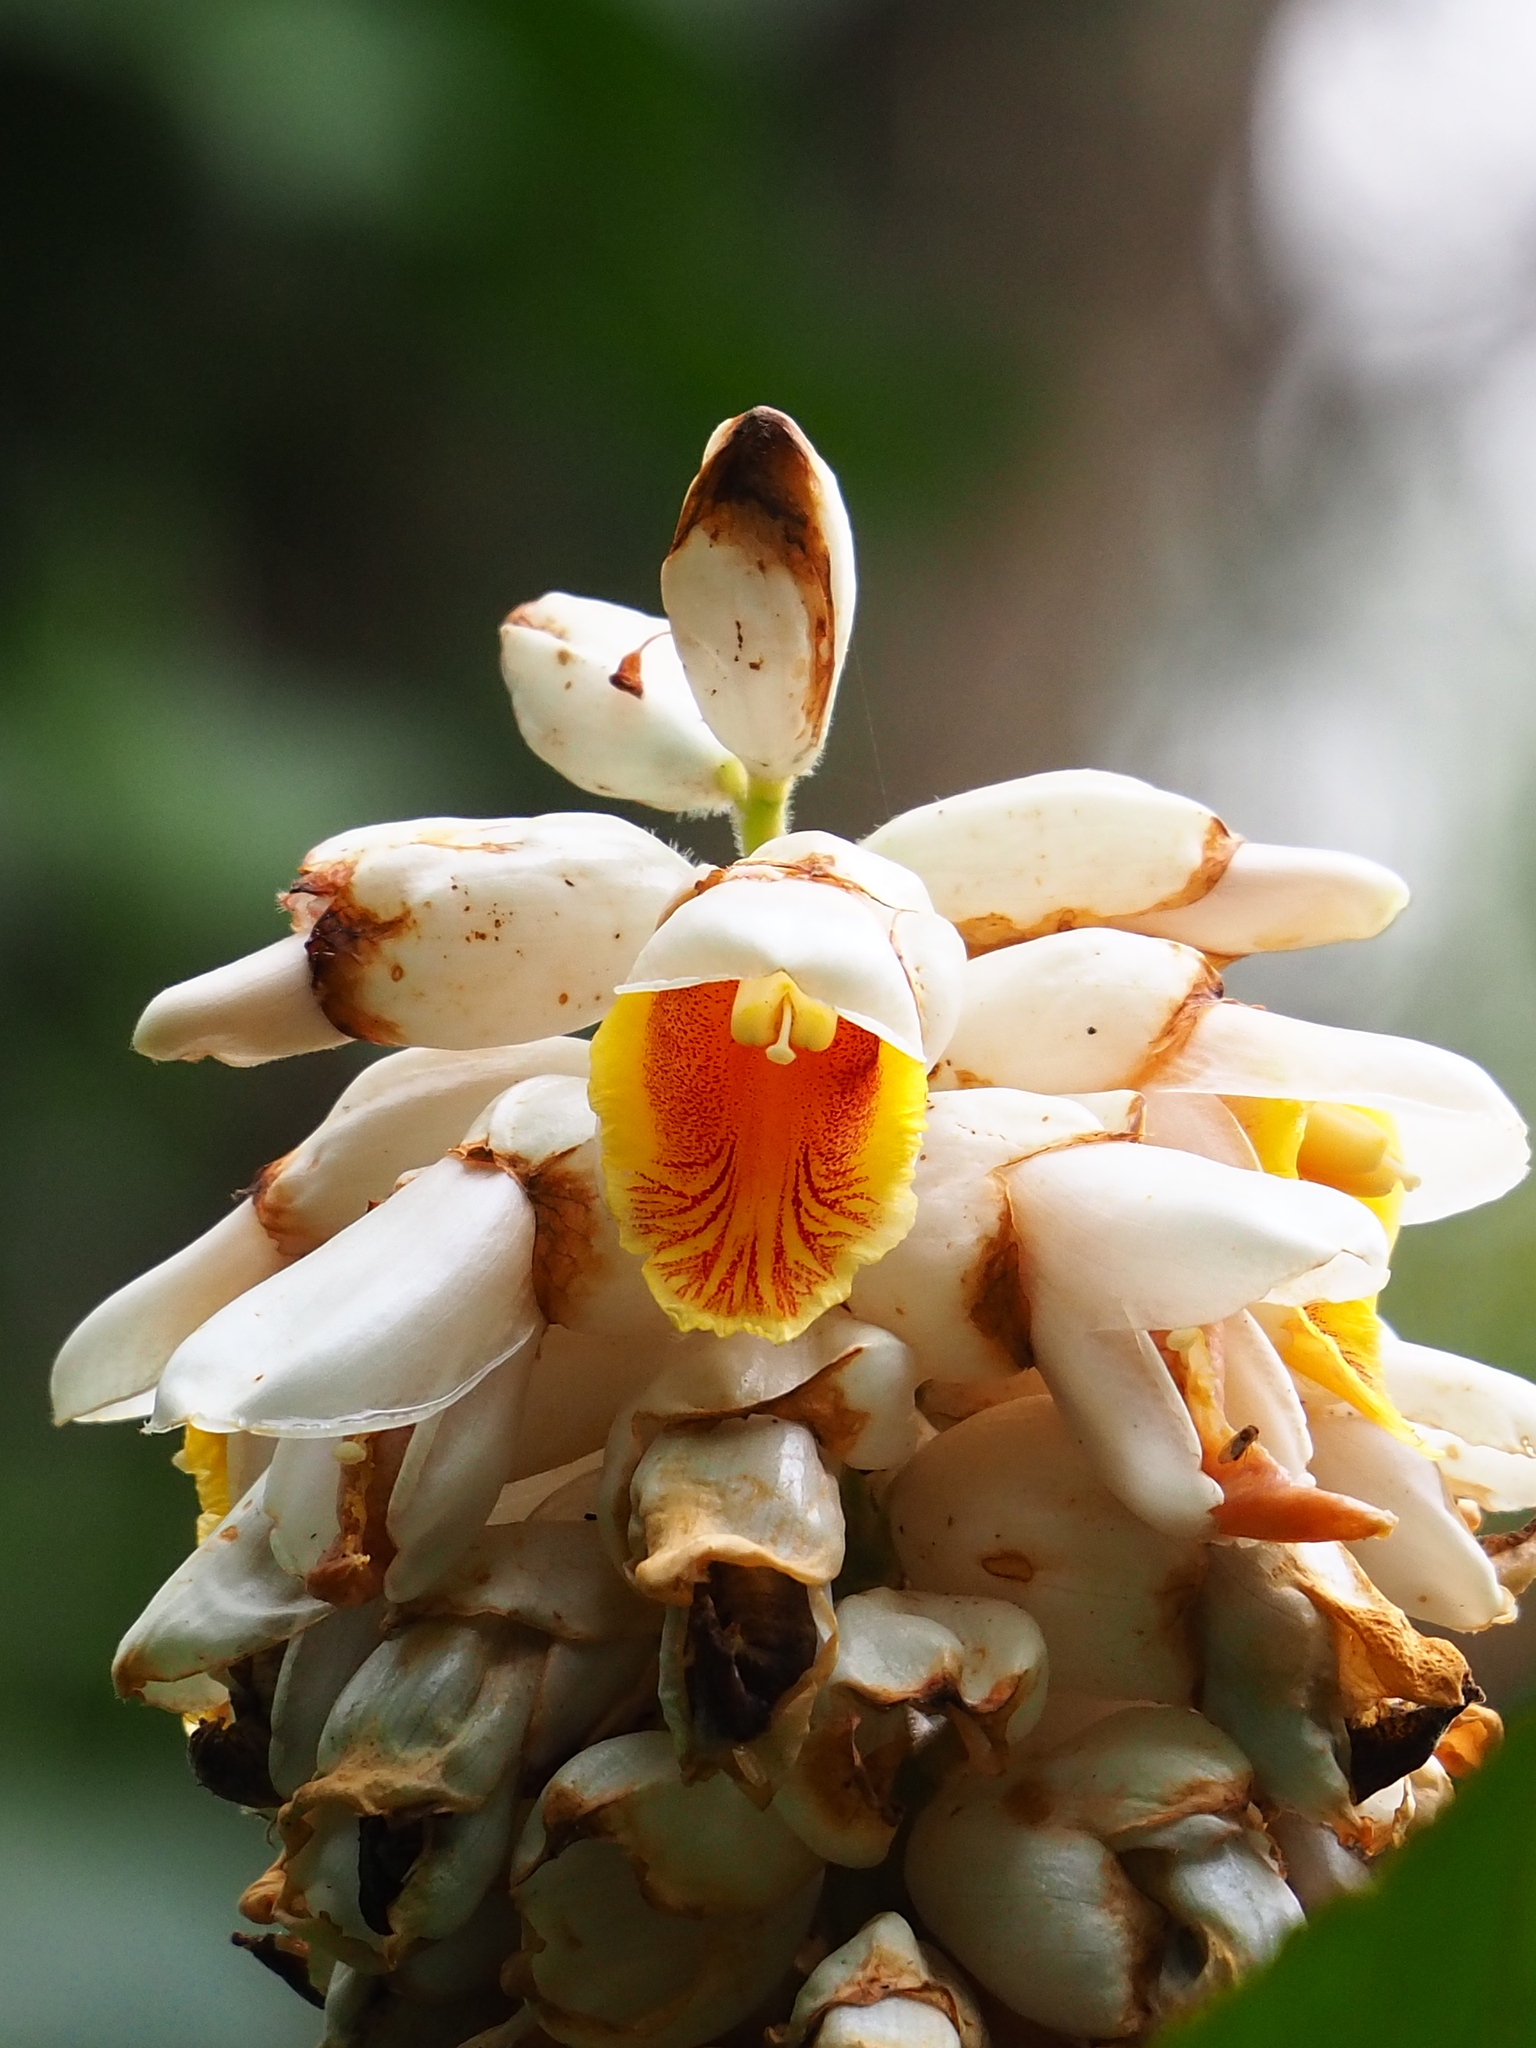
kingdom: Plantae
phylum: Tracheophyta
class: Liliopsida
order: Zingiberales
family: Zingiberaceae
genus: Alpinia
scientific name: Alpinia uraiensis
